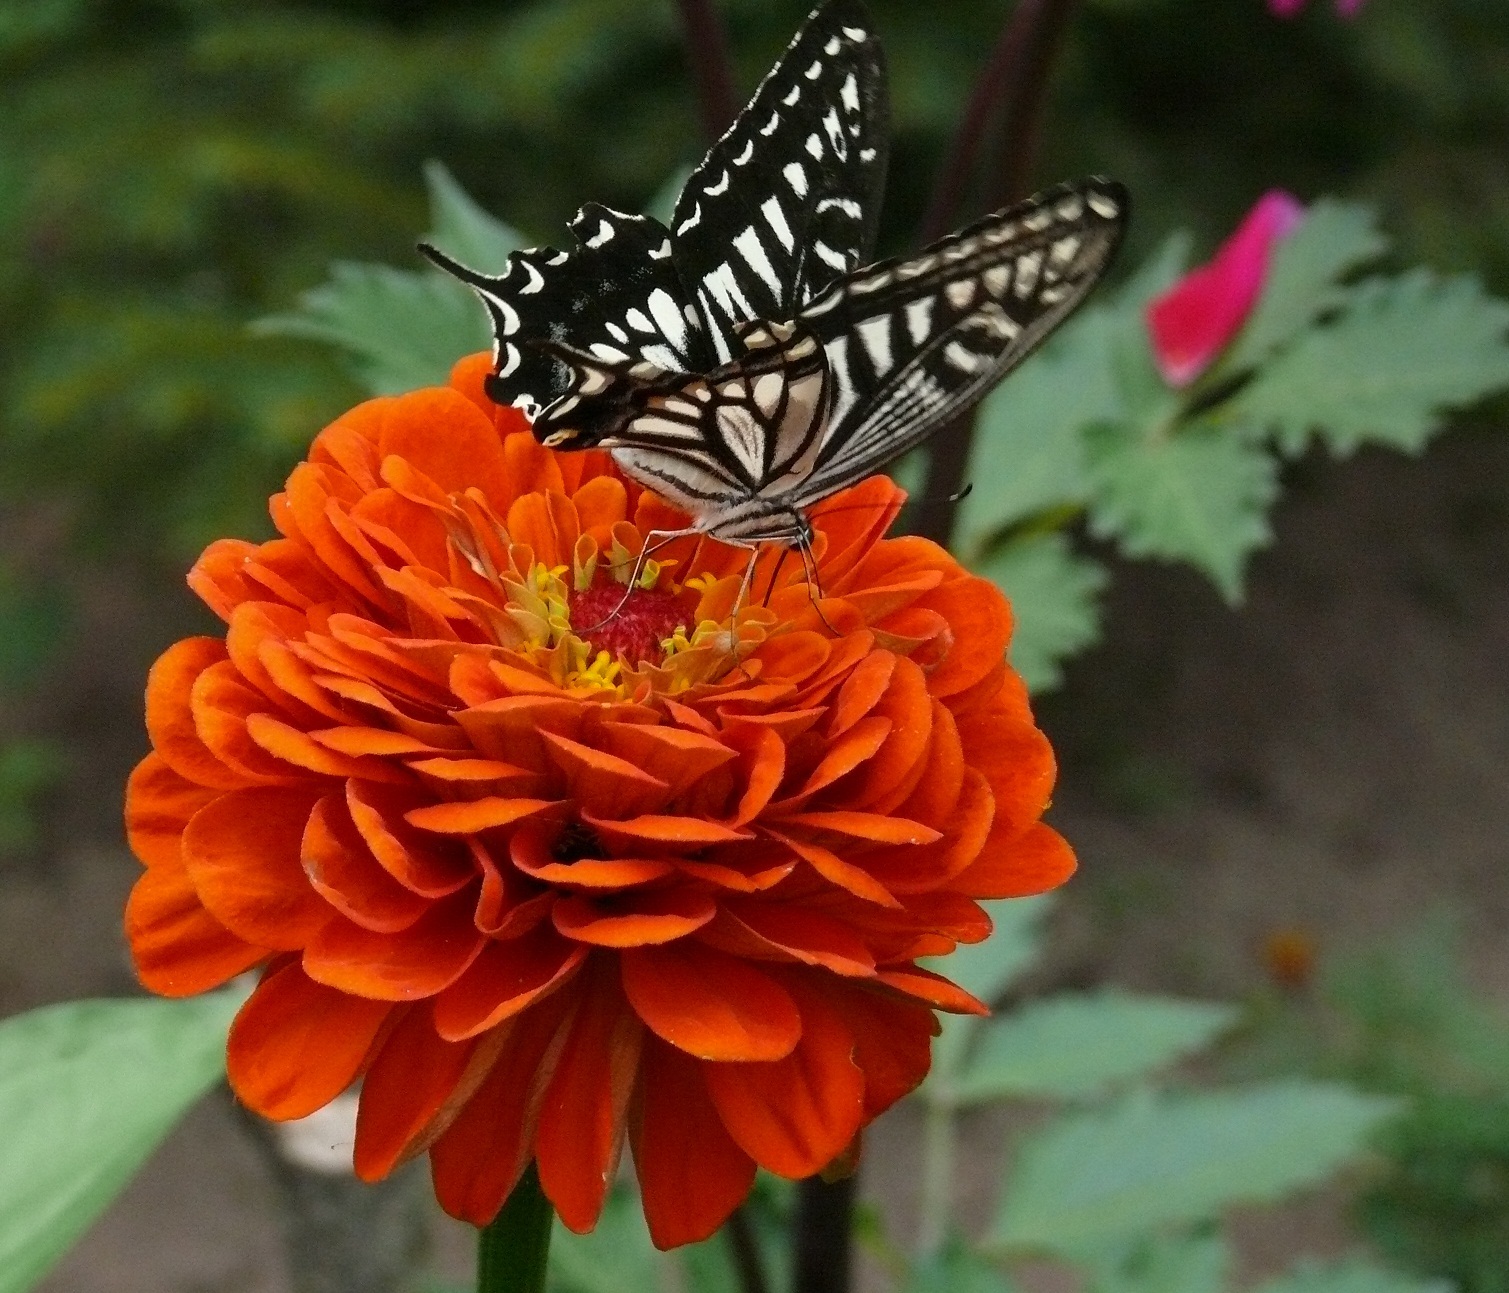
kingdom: Animalia
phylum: Arthropoda
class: Insecta
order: Lepidoptera
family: Papilionidae
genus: Papilio
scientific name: Papilio xuthus
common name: Asian swallowtail
